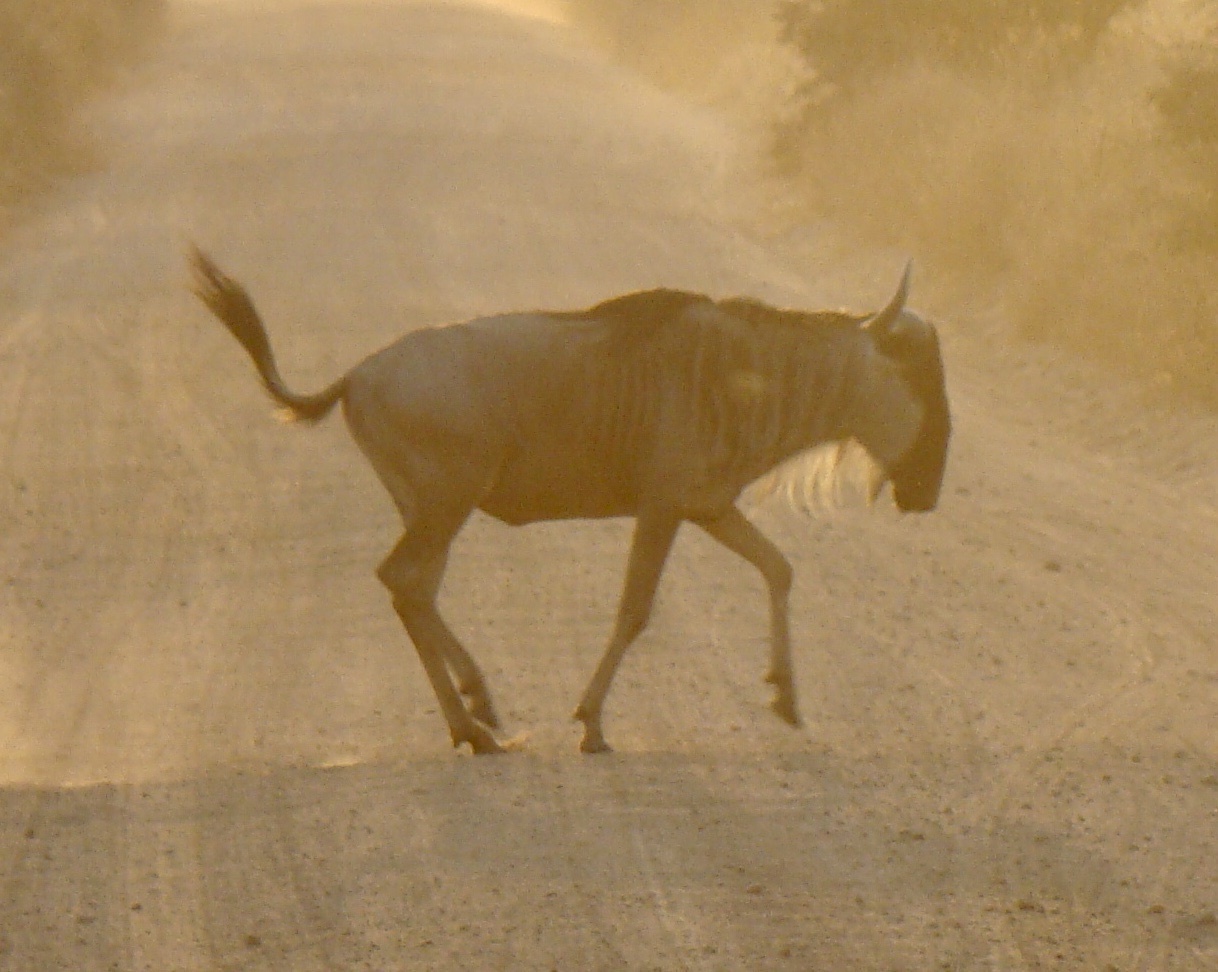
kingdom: Animalia
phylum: Chordata
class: Mammalia
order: Artiodactyla
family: Bovidae
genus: Connochaetes
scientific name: Connochaetes taurinus
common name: Blue wildebeest
